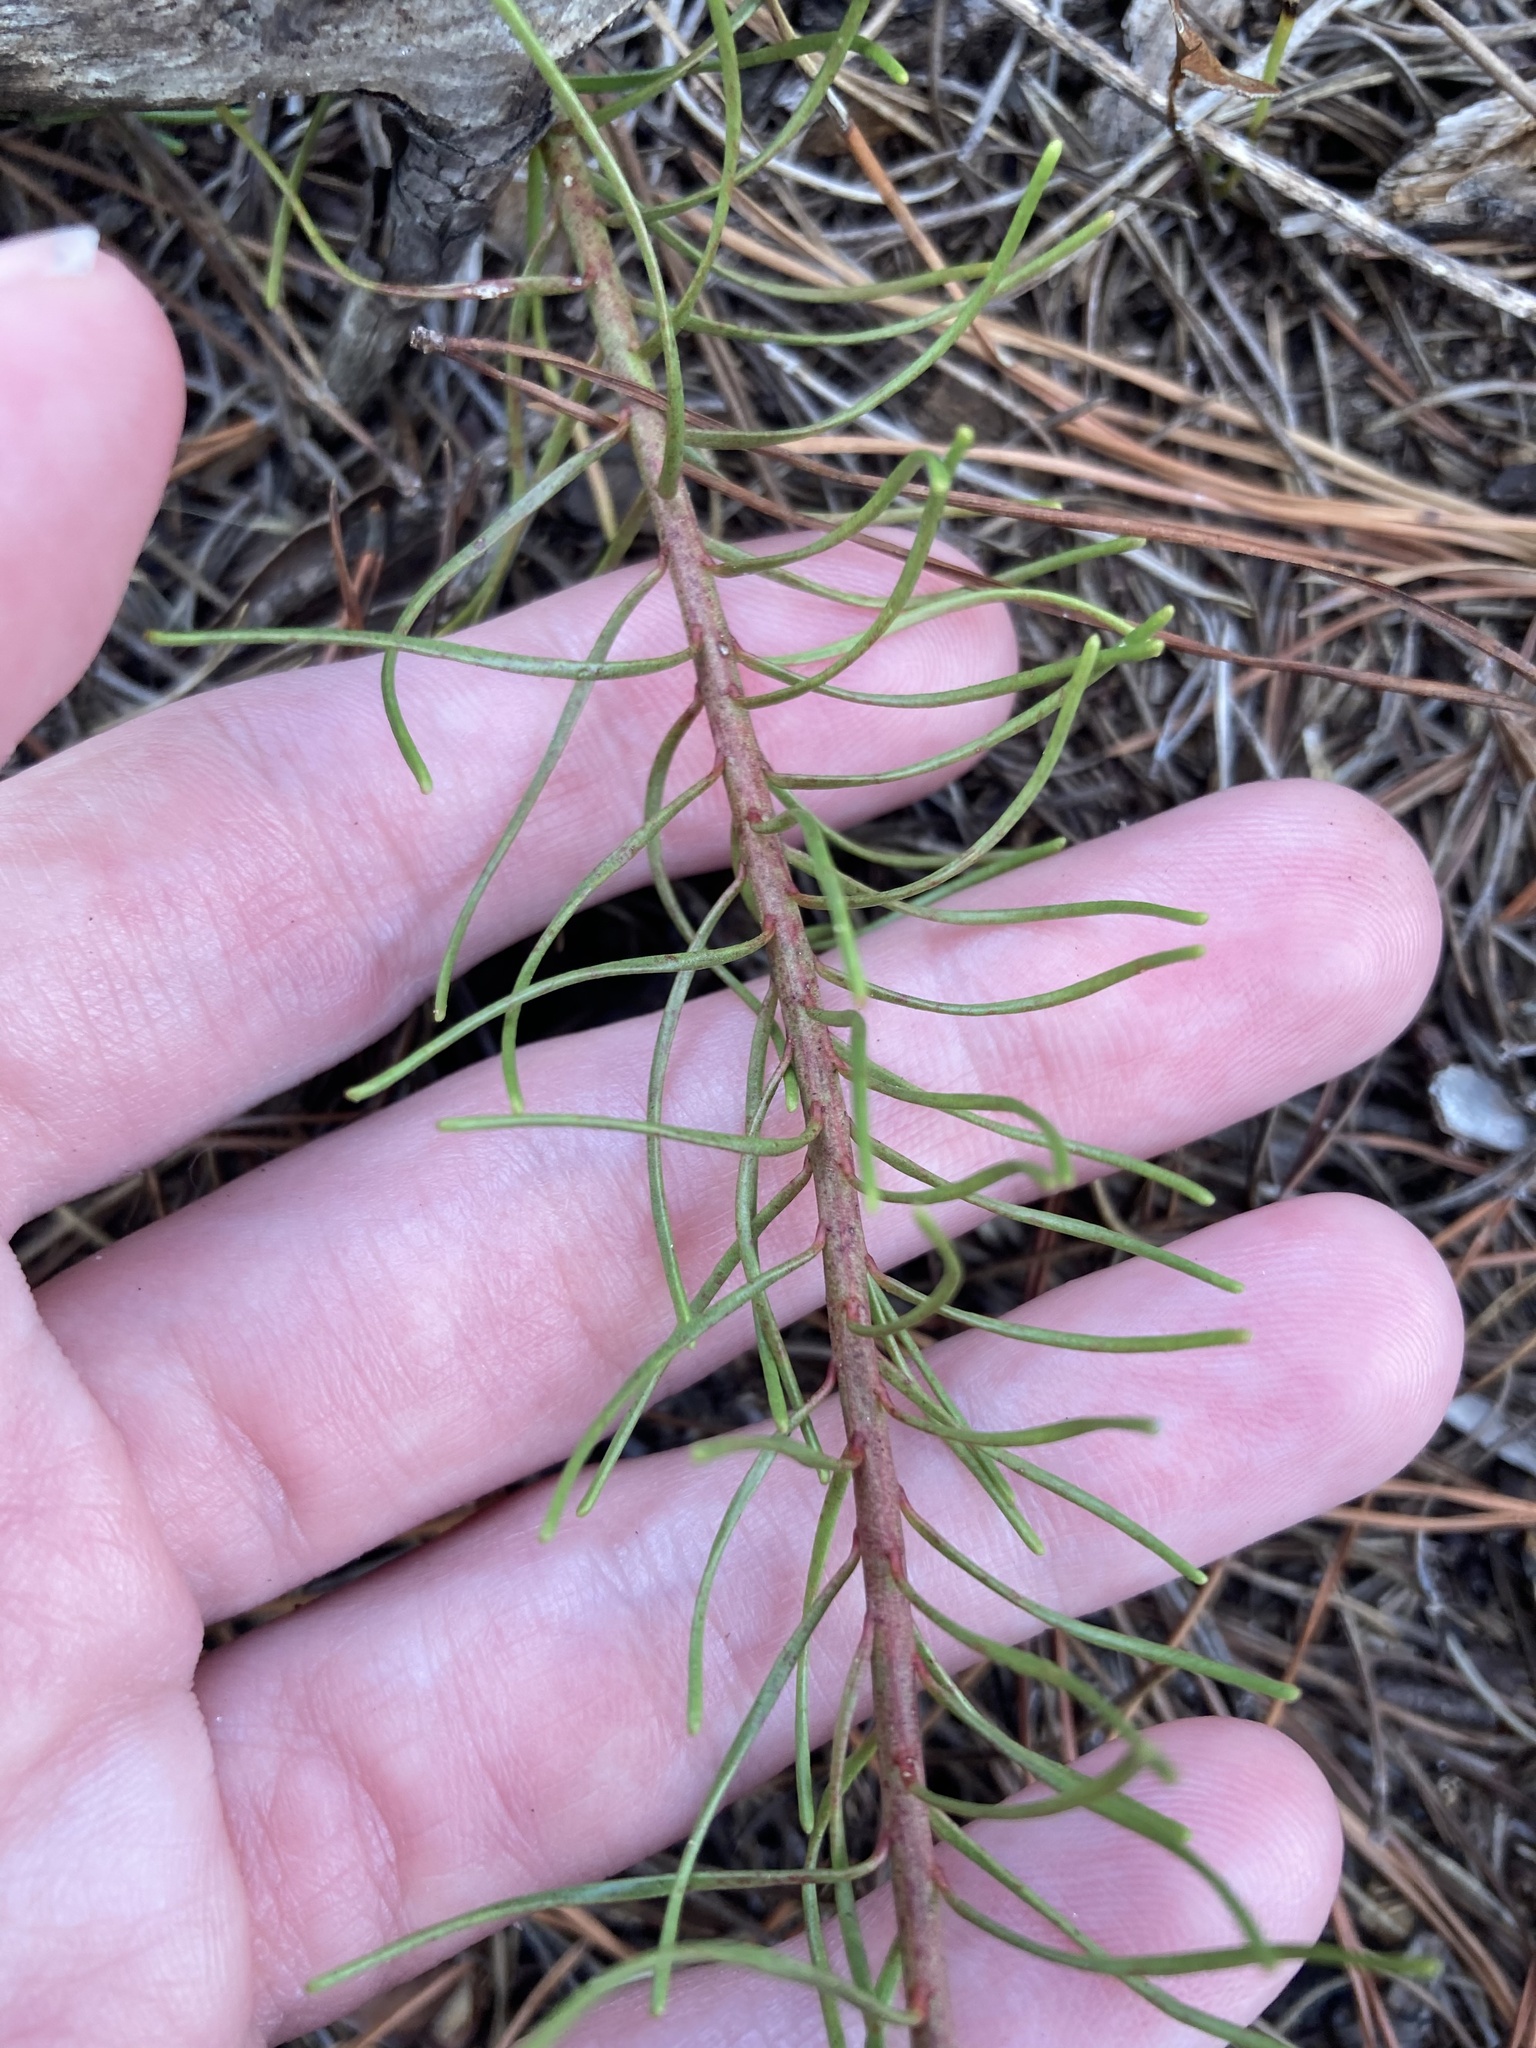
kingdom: Plantae
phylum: Tracheophyta
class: Magnoliopsida
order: Malpighiales
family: Euphorbiaceae
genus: Euphorbia
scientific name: Euphorbia polyphylla
